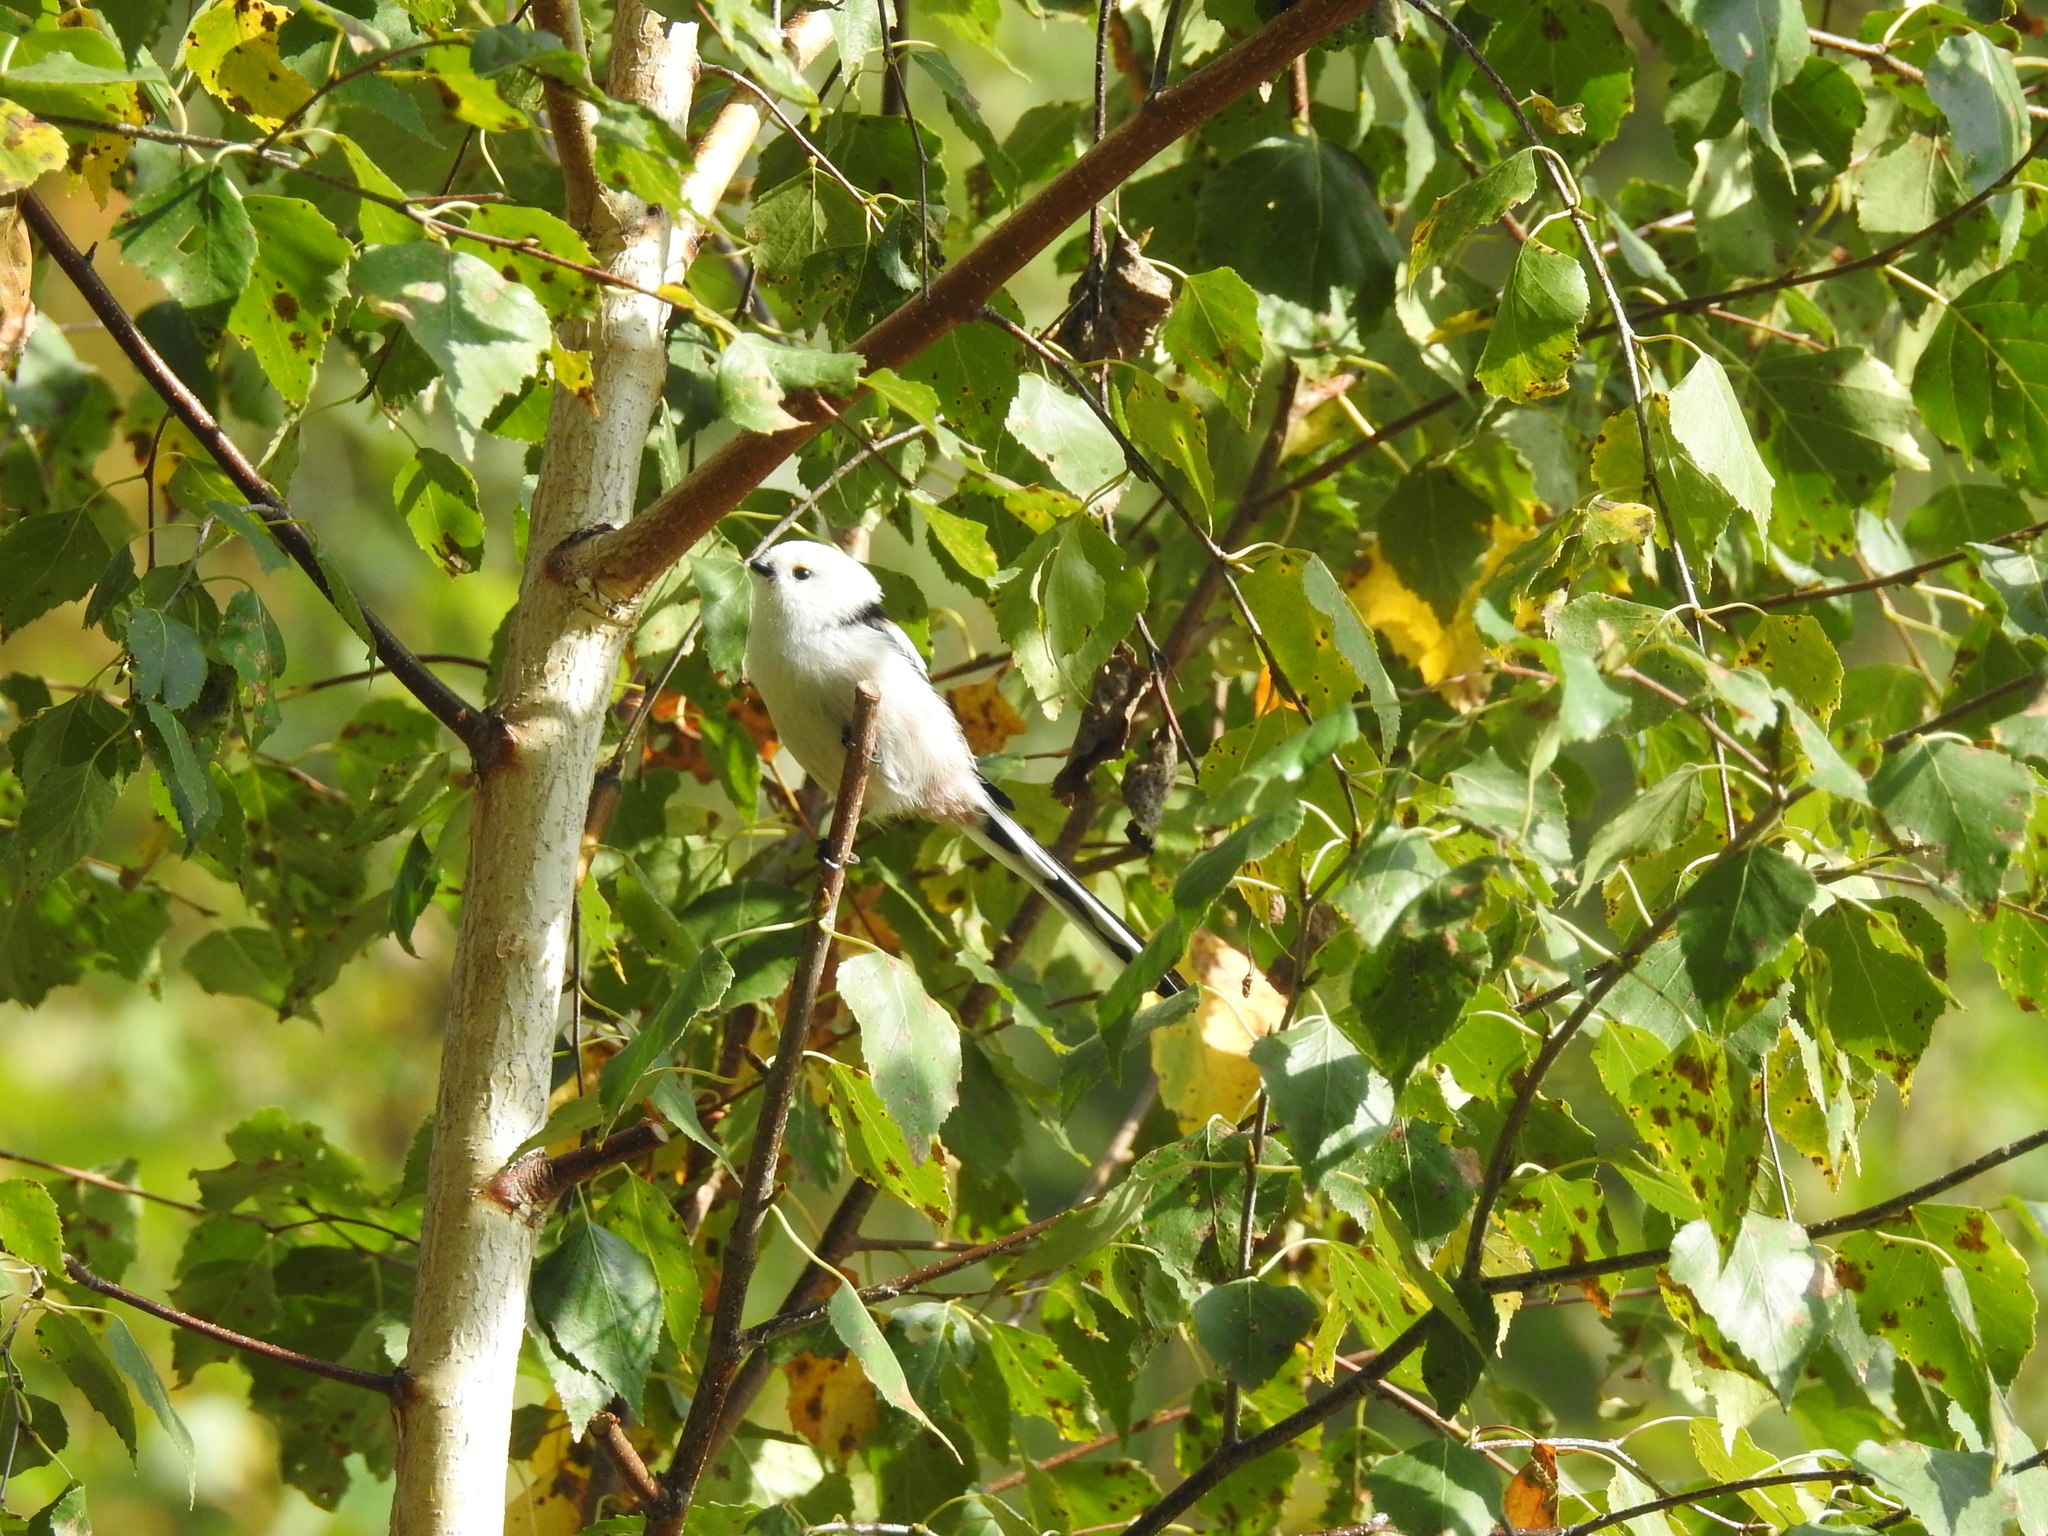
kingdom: Animalia
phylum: Chordata
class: Aves
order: Passeriformes
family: Aegithalidae
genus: Aegithalos
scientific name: Aegithalos caudatus
